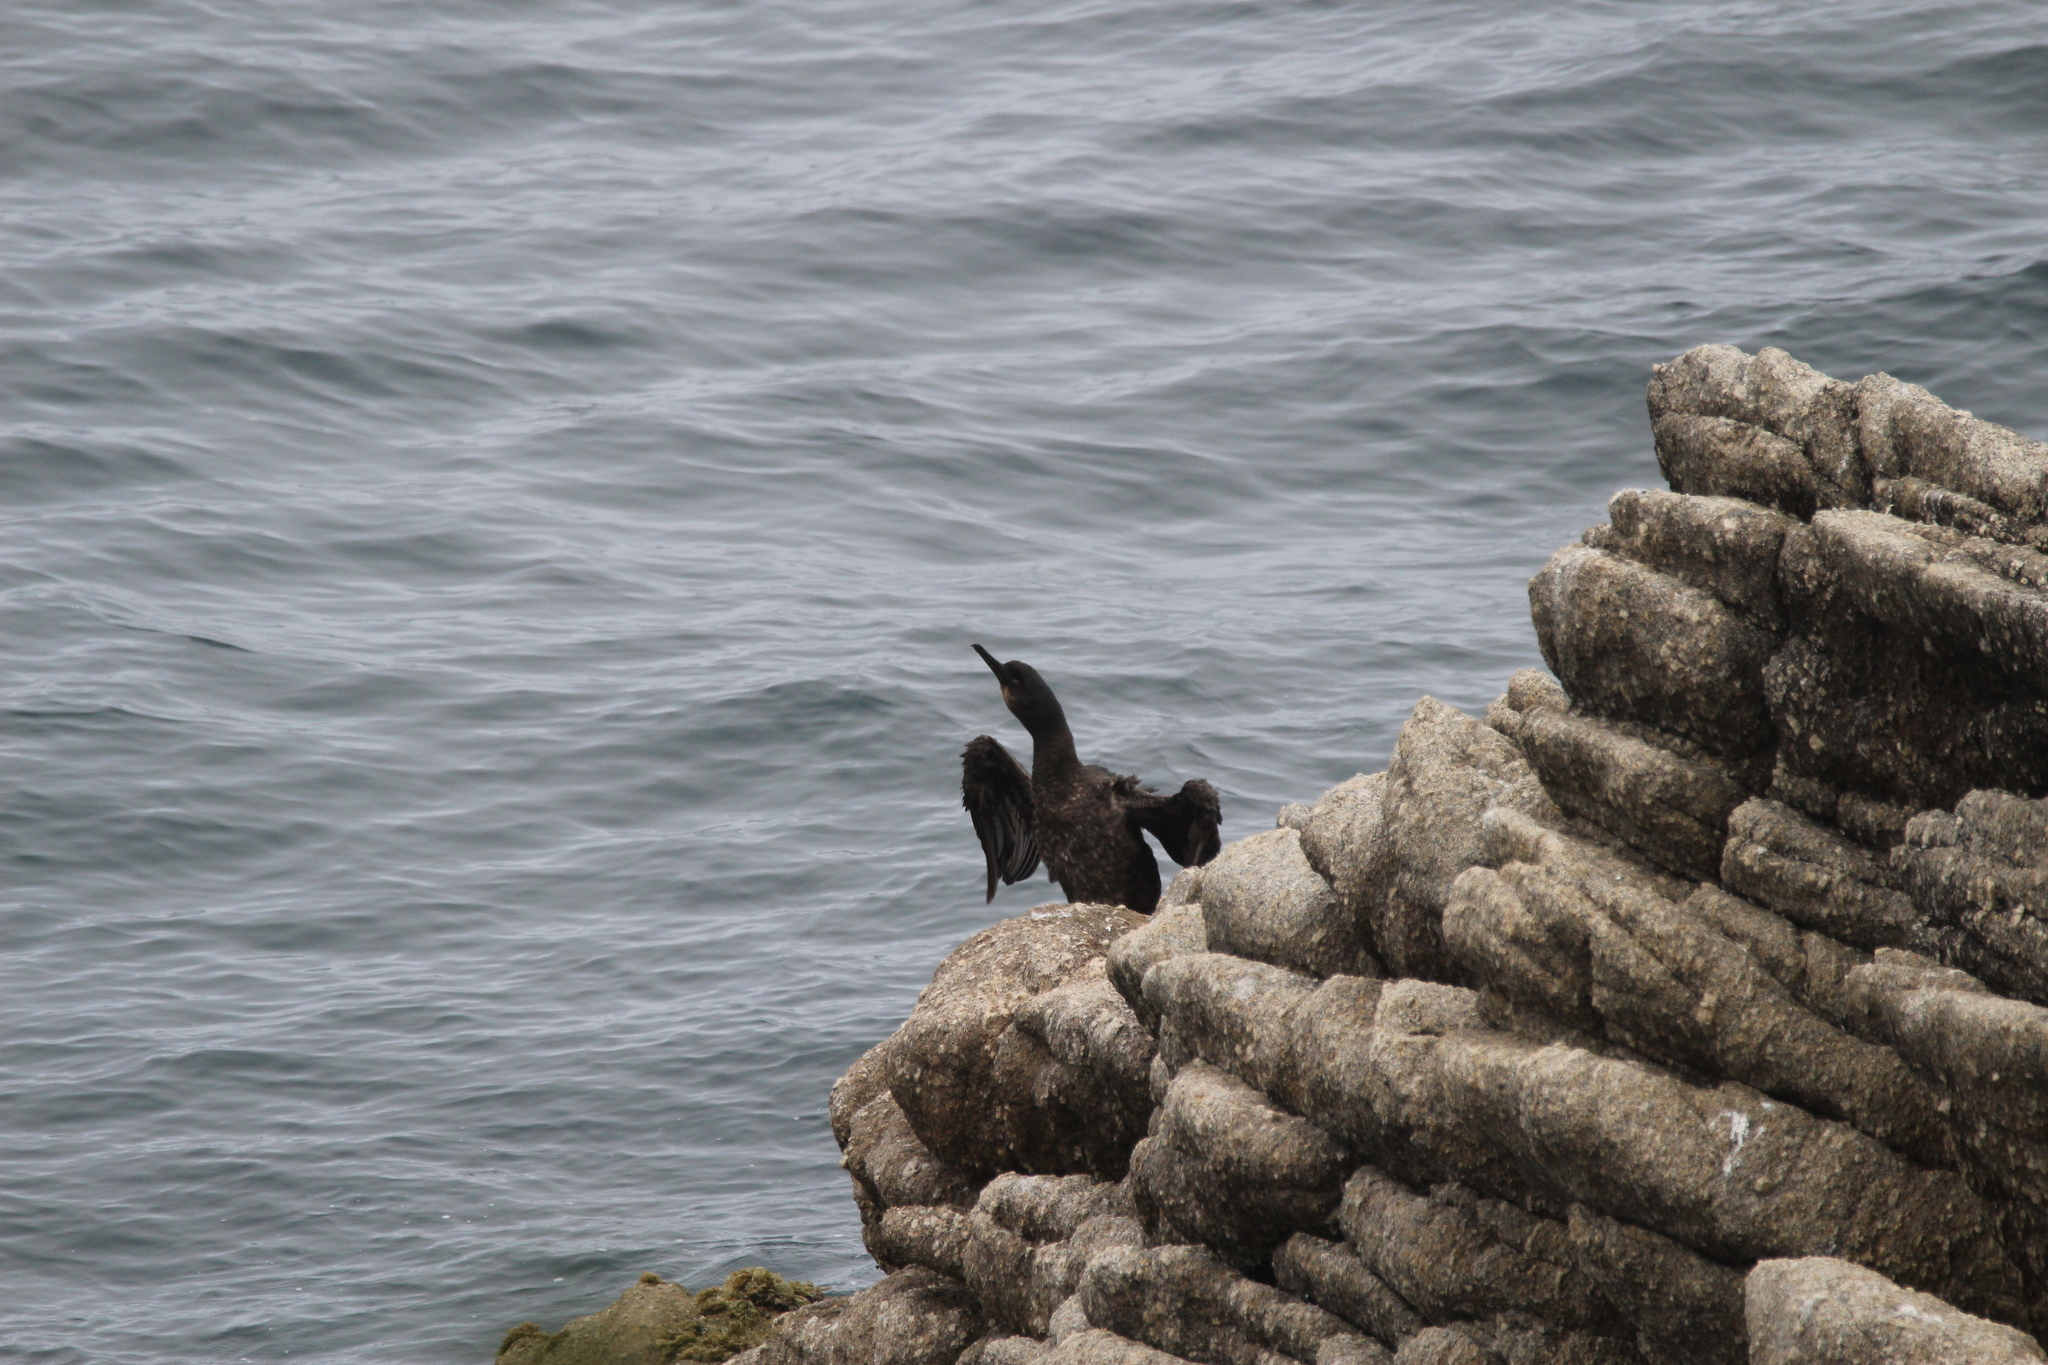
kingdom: Animalia
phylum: Chordata
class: Aves
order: Suliformes
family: Phalacrocoracidae
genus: Urile
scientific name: Urile penicillatus
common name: Brandt's cormorant
